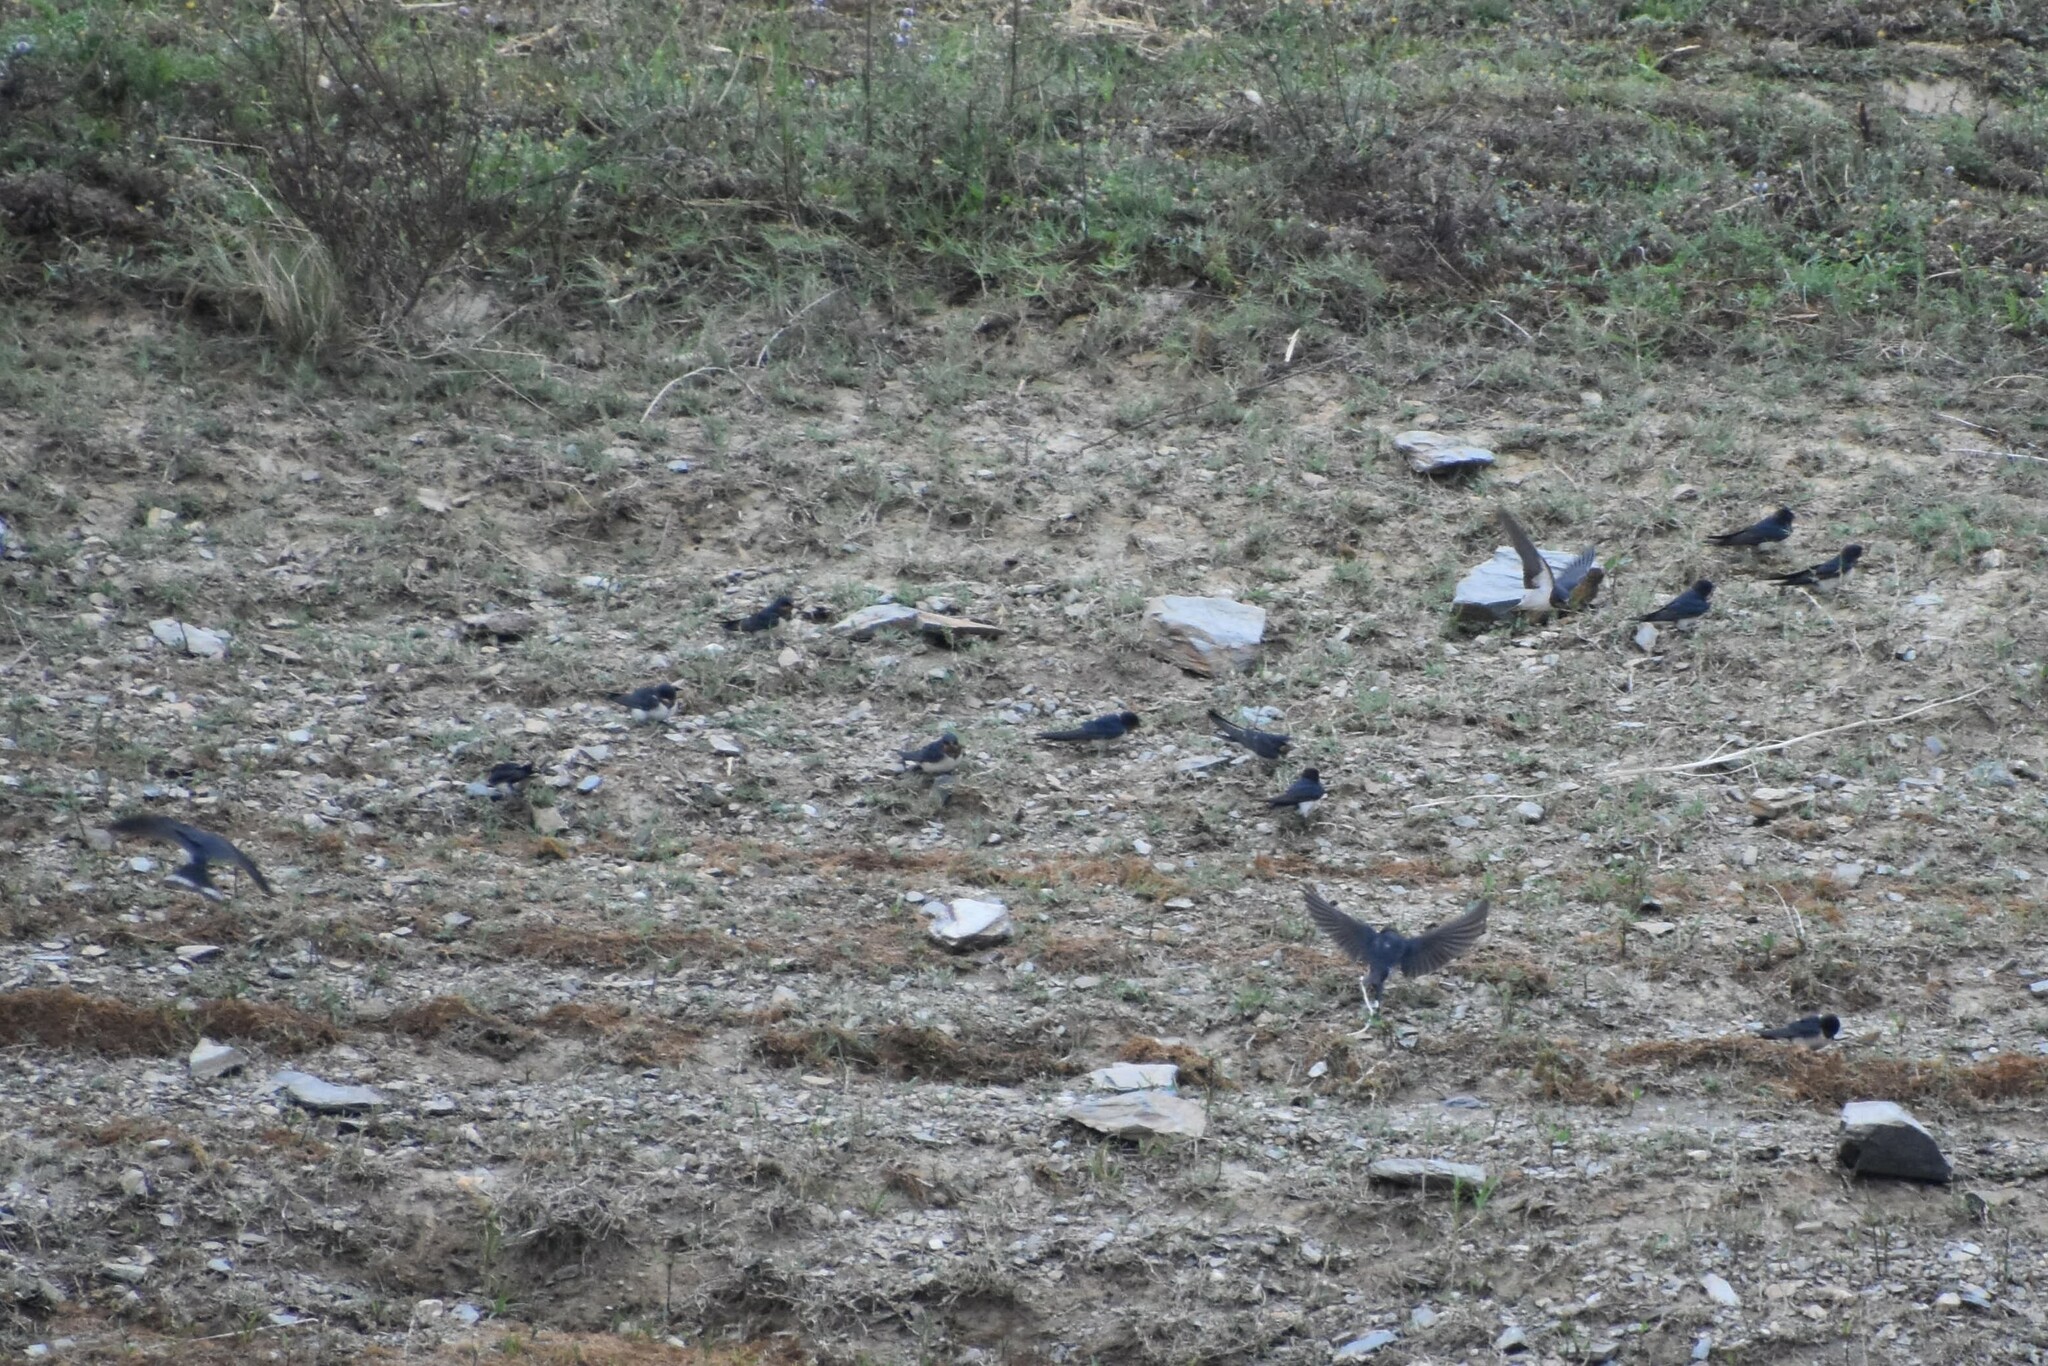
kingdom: Animalia
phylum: Chordata
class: Aves
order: Passeriformes
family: Hirundinidae
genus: Hirundo
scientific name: Hirundo rustica
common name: Barn swallow
